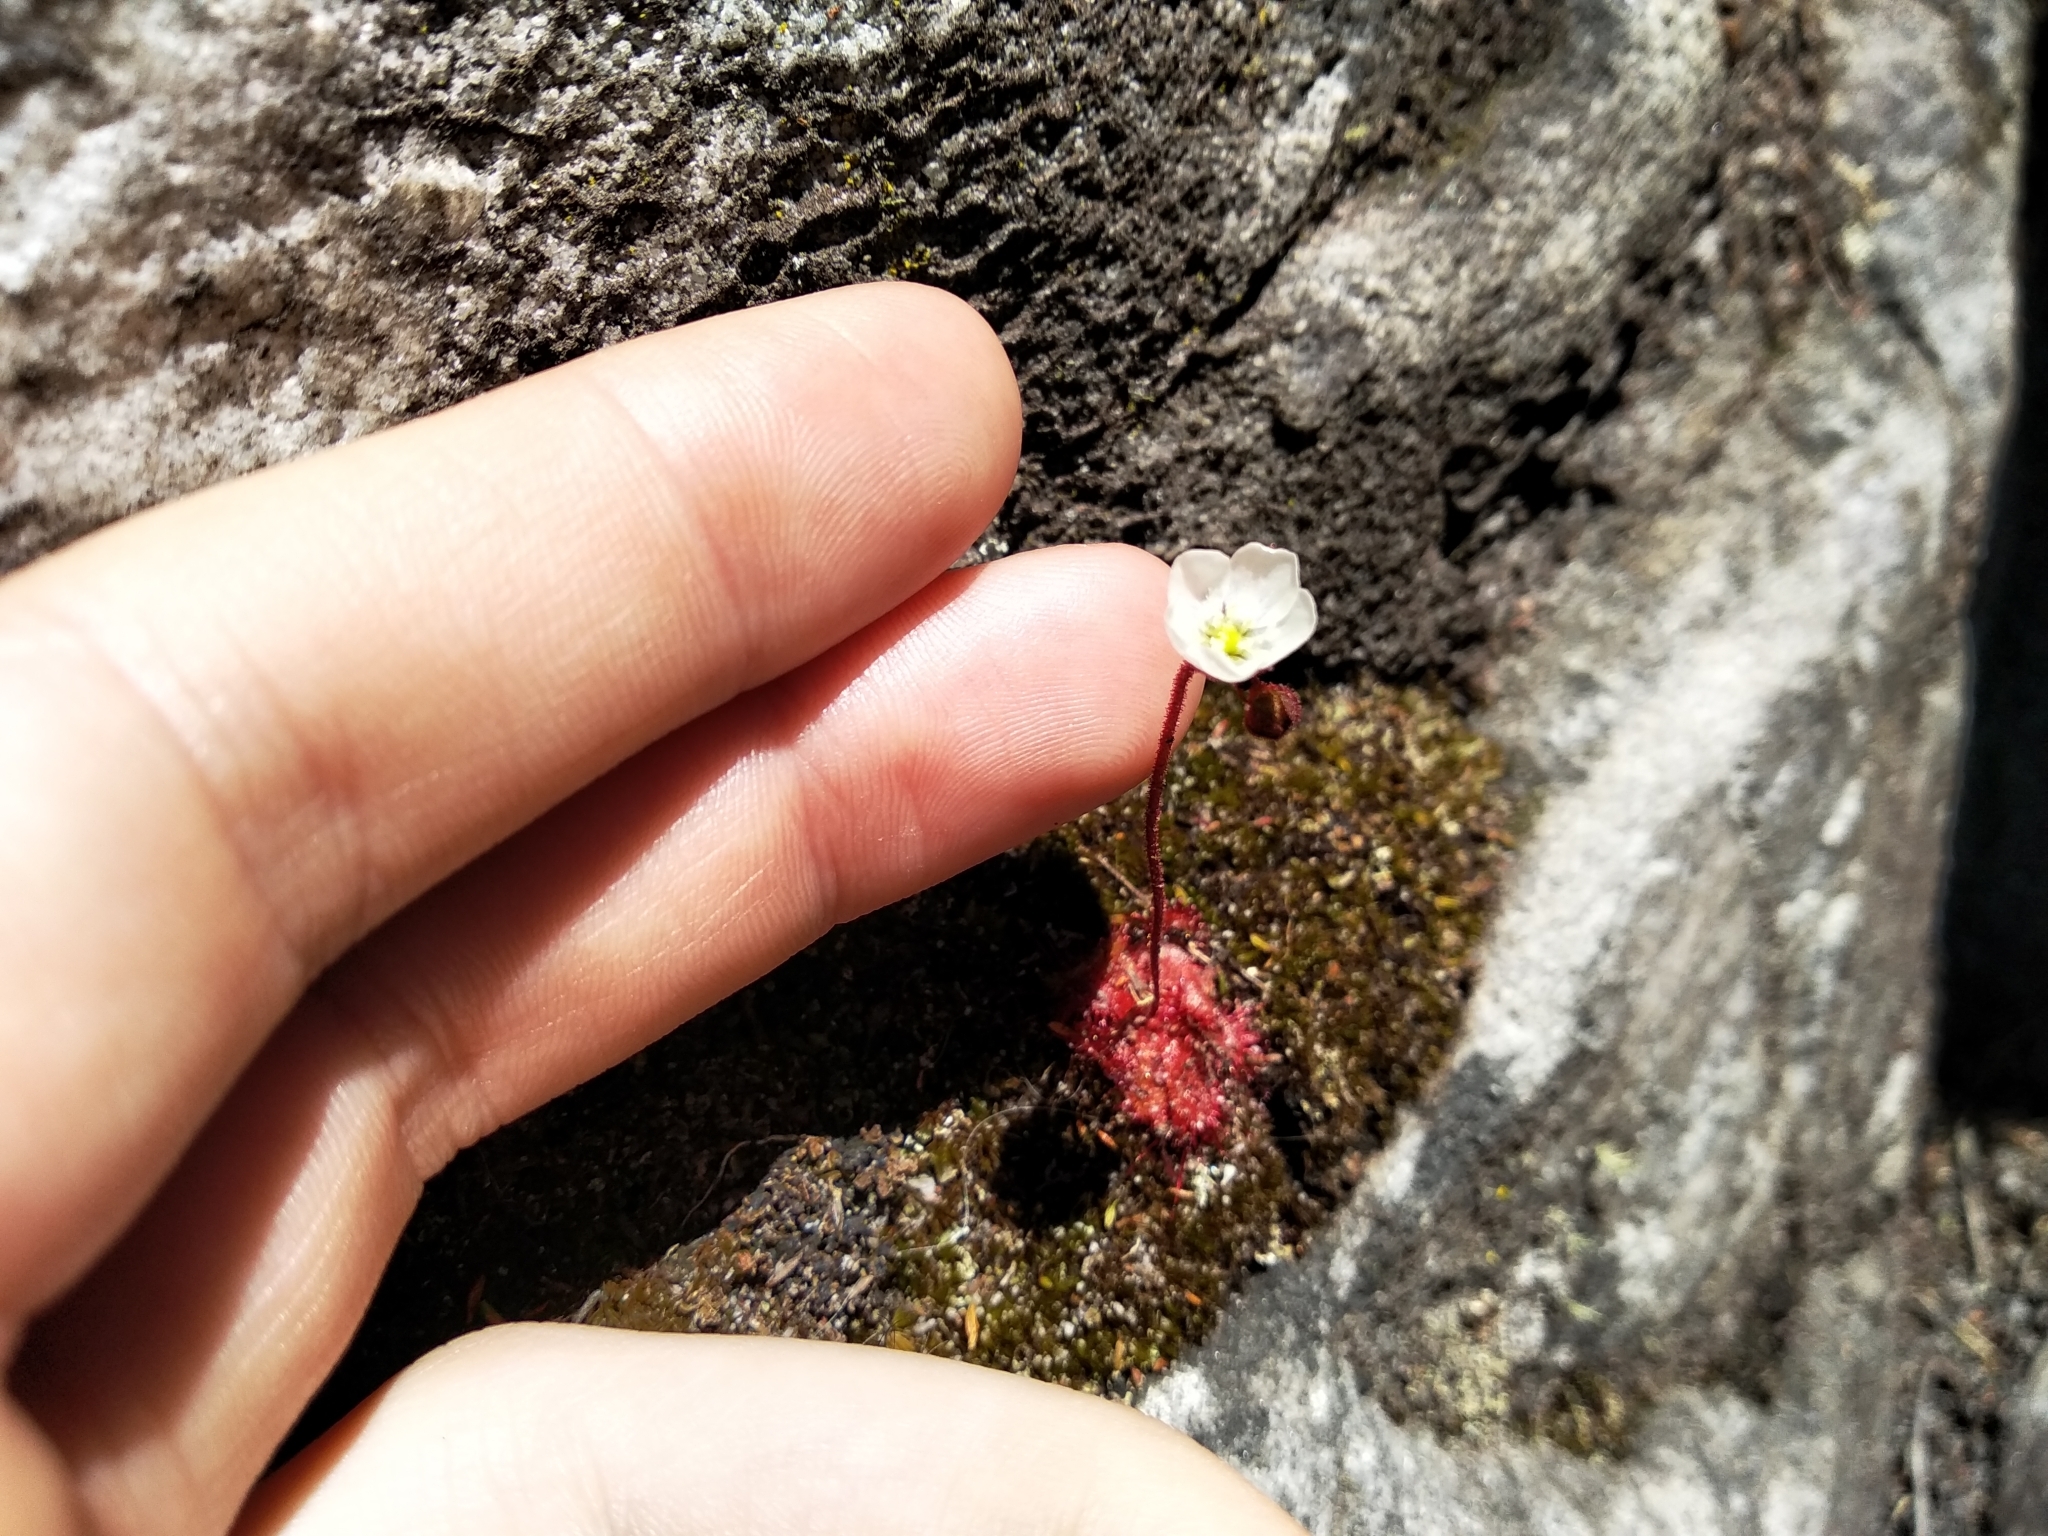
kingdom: Plantae
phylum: Tracheophyta
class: Magnoliopsida
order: Caryophyllales
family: Droseraceae
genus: Drosera
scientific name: Drosera trinervia
